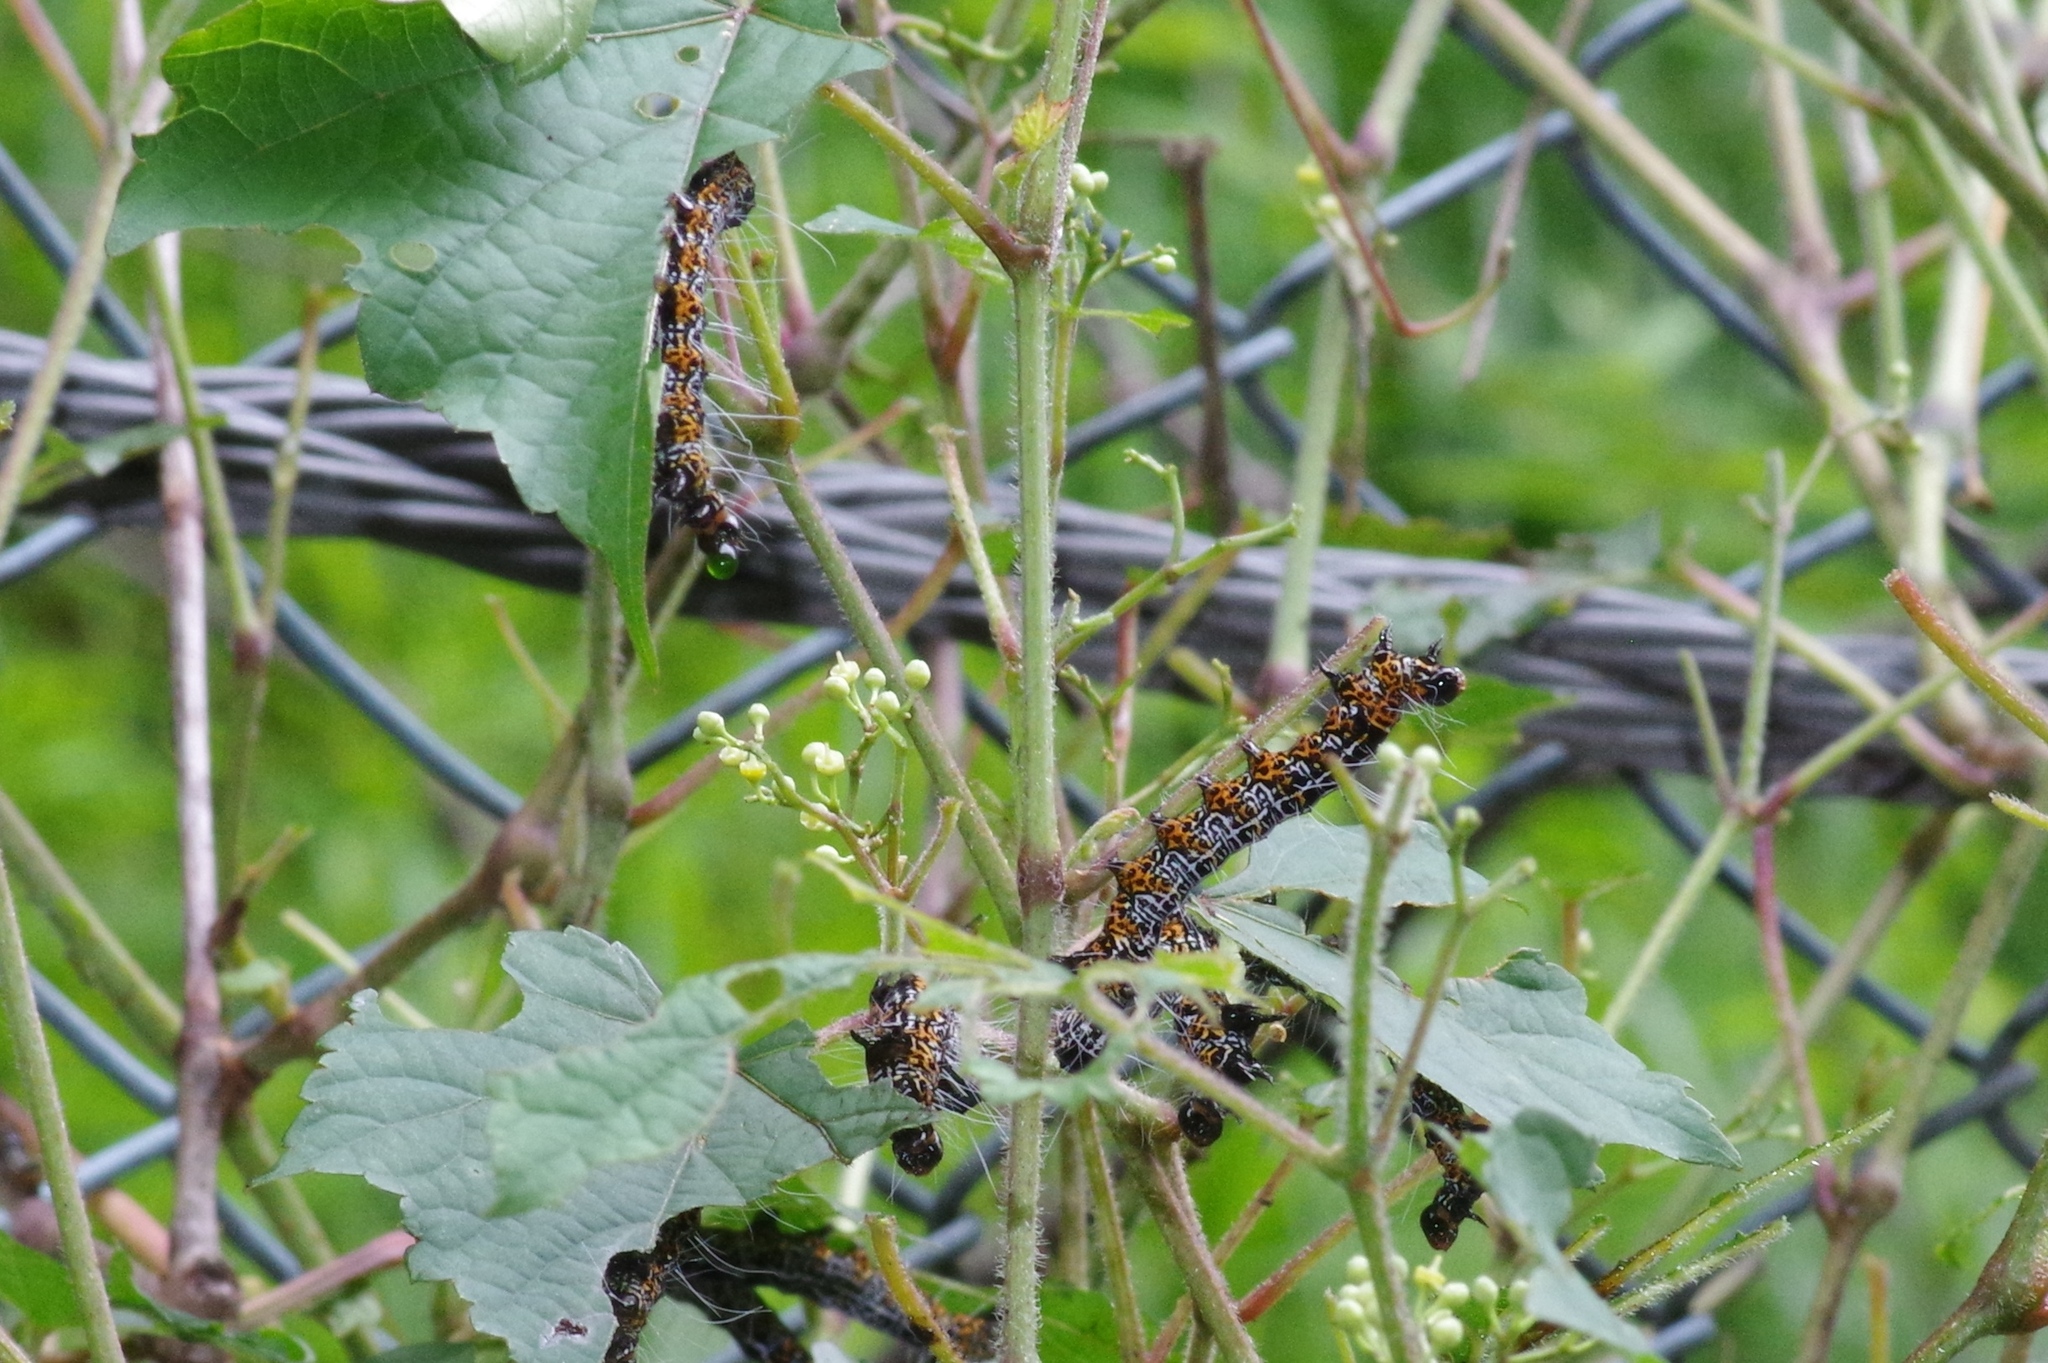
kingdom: Animalia
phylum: Arthropoda
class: Insecta
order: Lepidoptera
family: Noctuidae
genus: Sarbanissa
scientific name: Sarbanissa subflava
